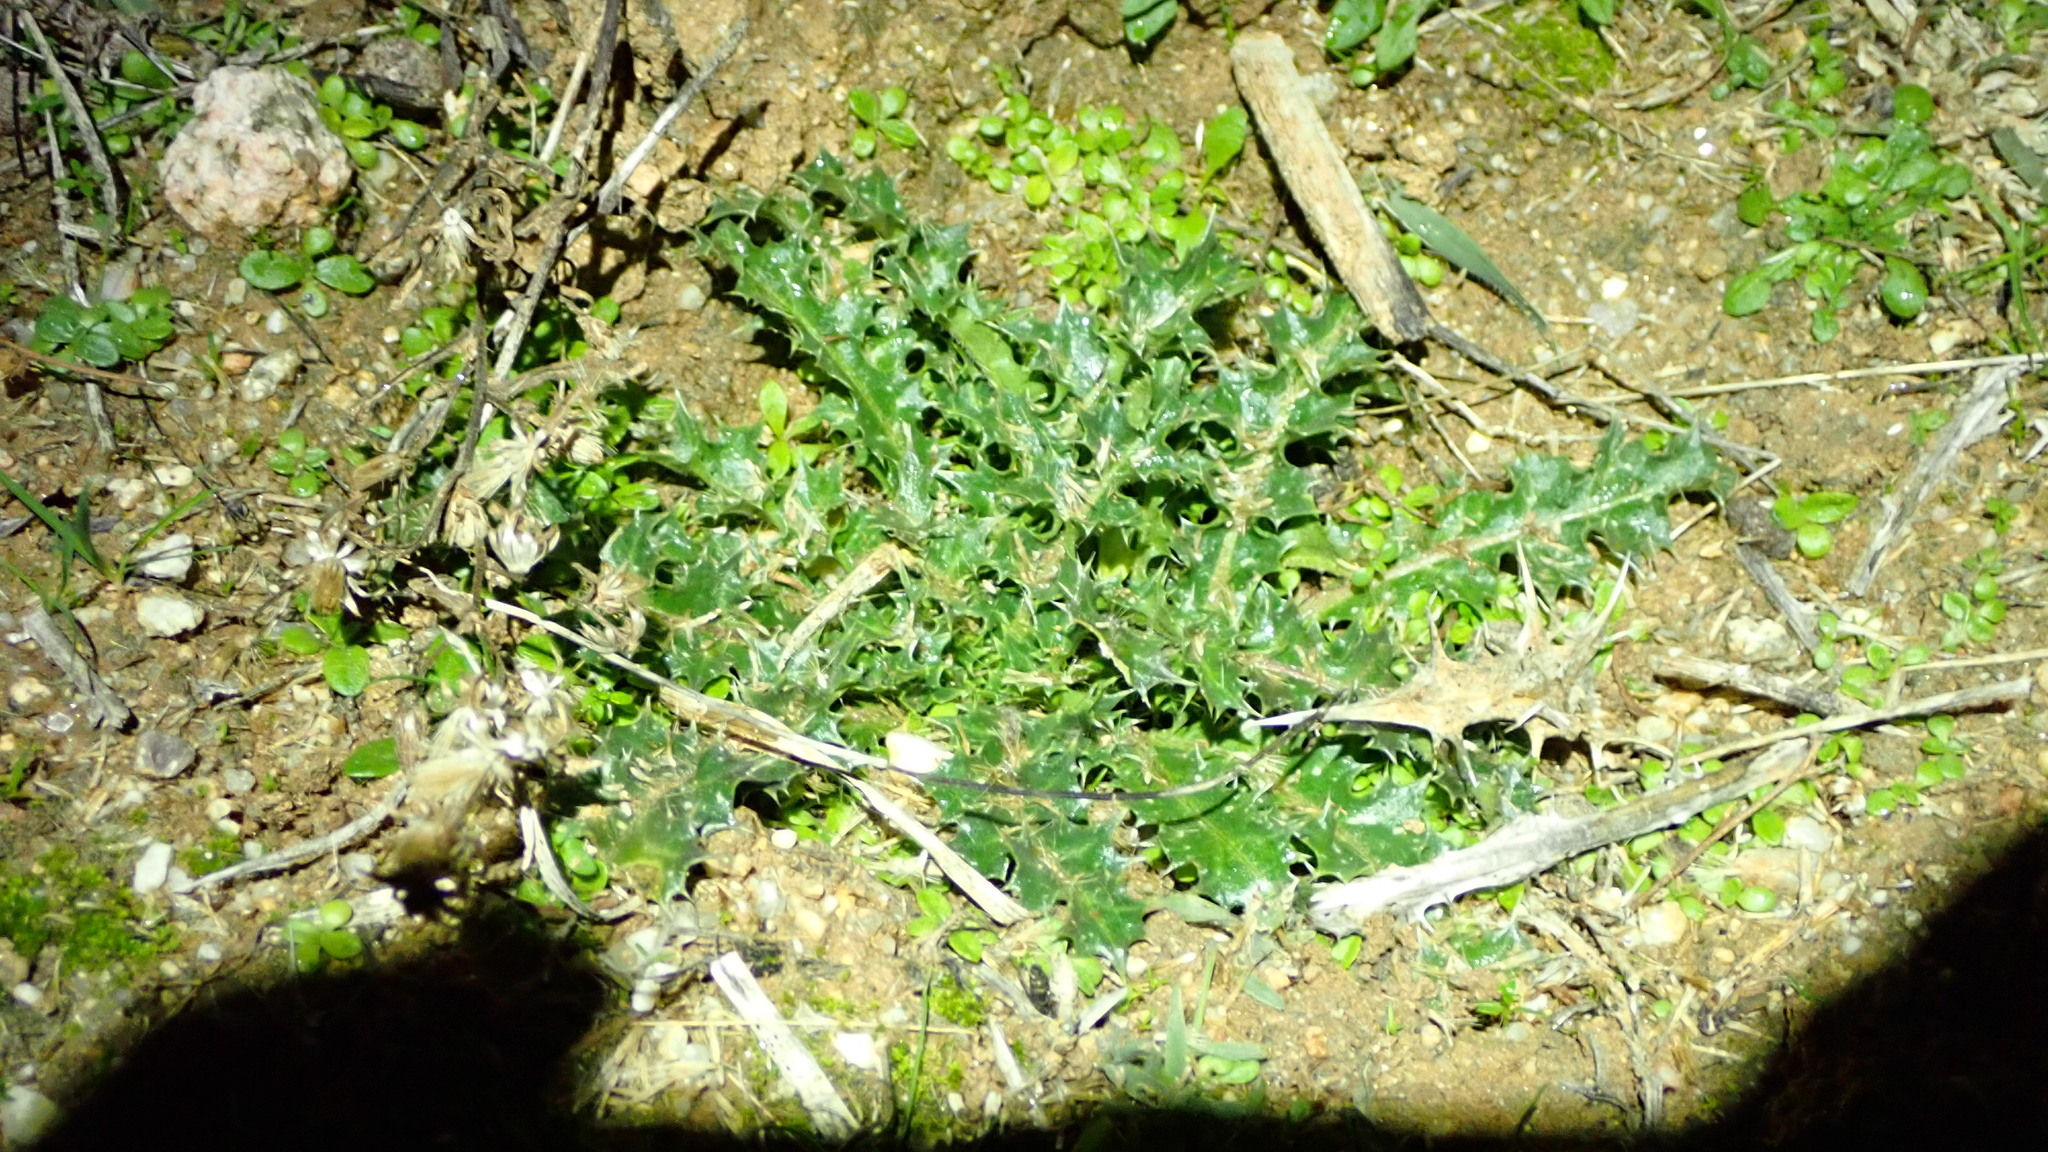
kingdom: Plantae
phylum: Tracheophyta
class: Magnoliopsida
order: Asterales
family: Asteraceae
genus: Scolymus
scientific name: Scolymus hispanicus
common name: Golden thistle
